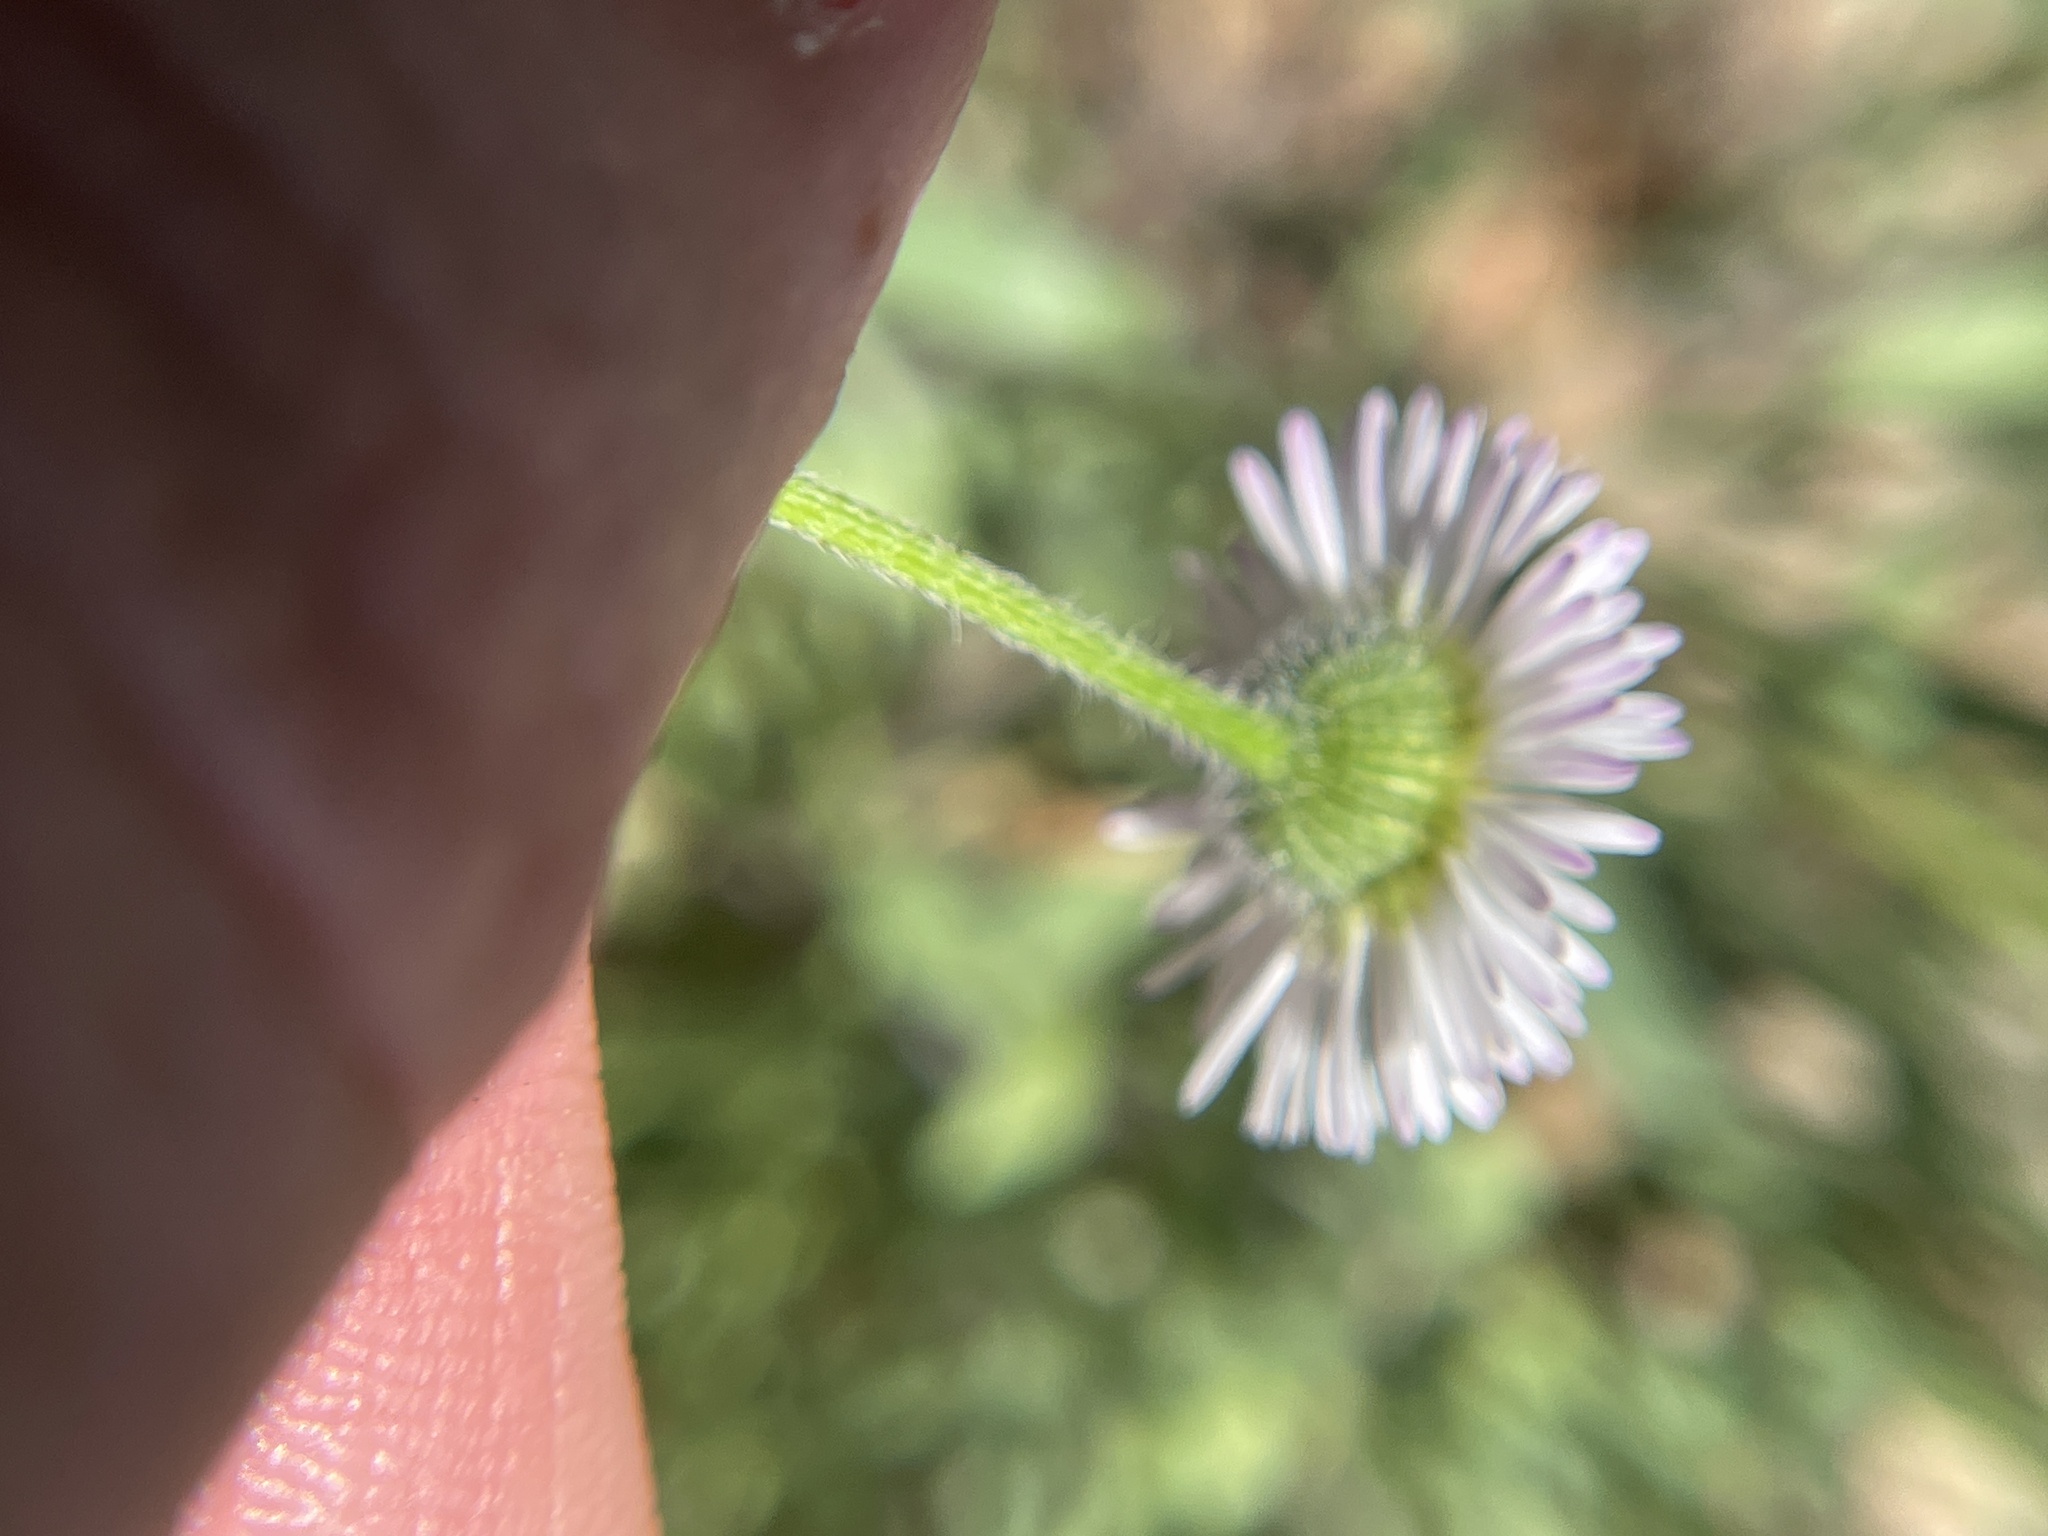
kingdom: Plantae
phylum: Tracheophyta
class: Magnoliopsida
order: Asterales
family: Asteraceae
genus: Erigeron
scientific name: Erigeron modestus
